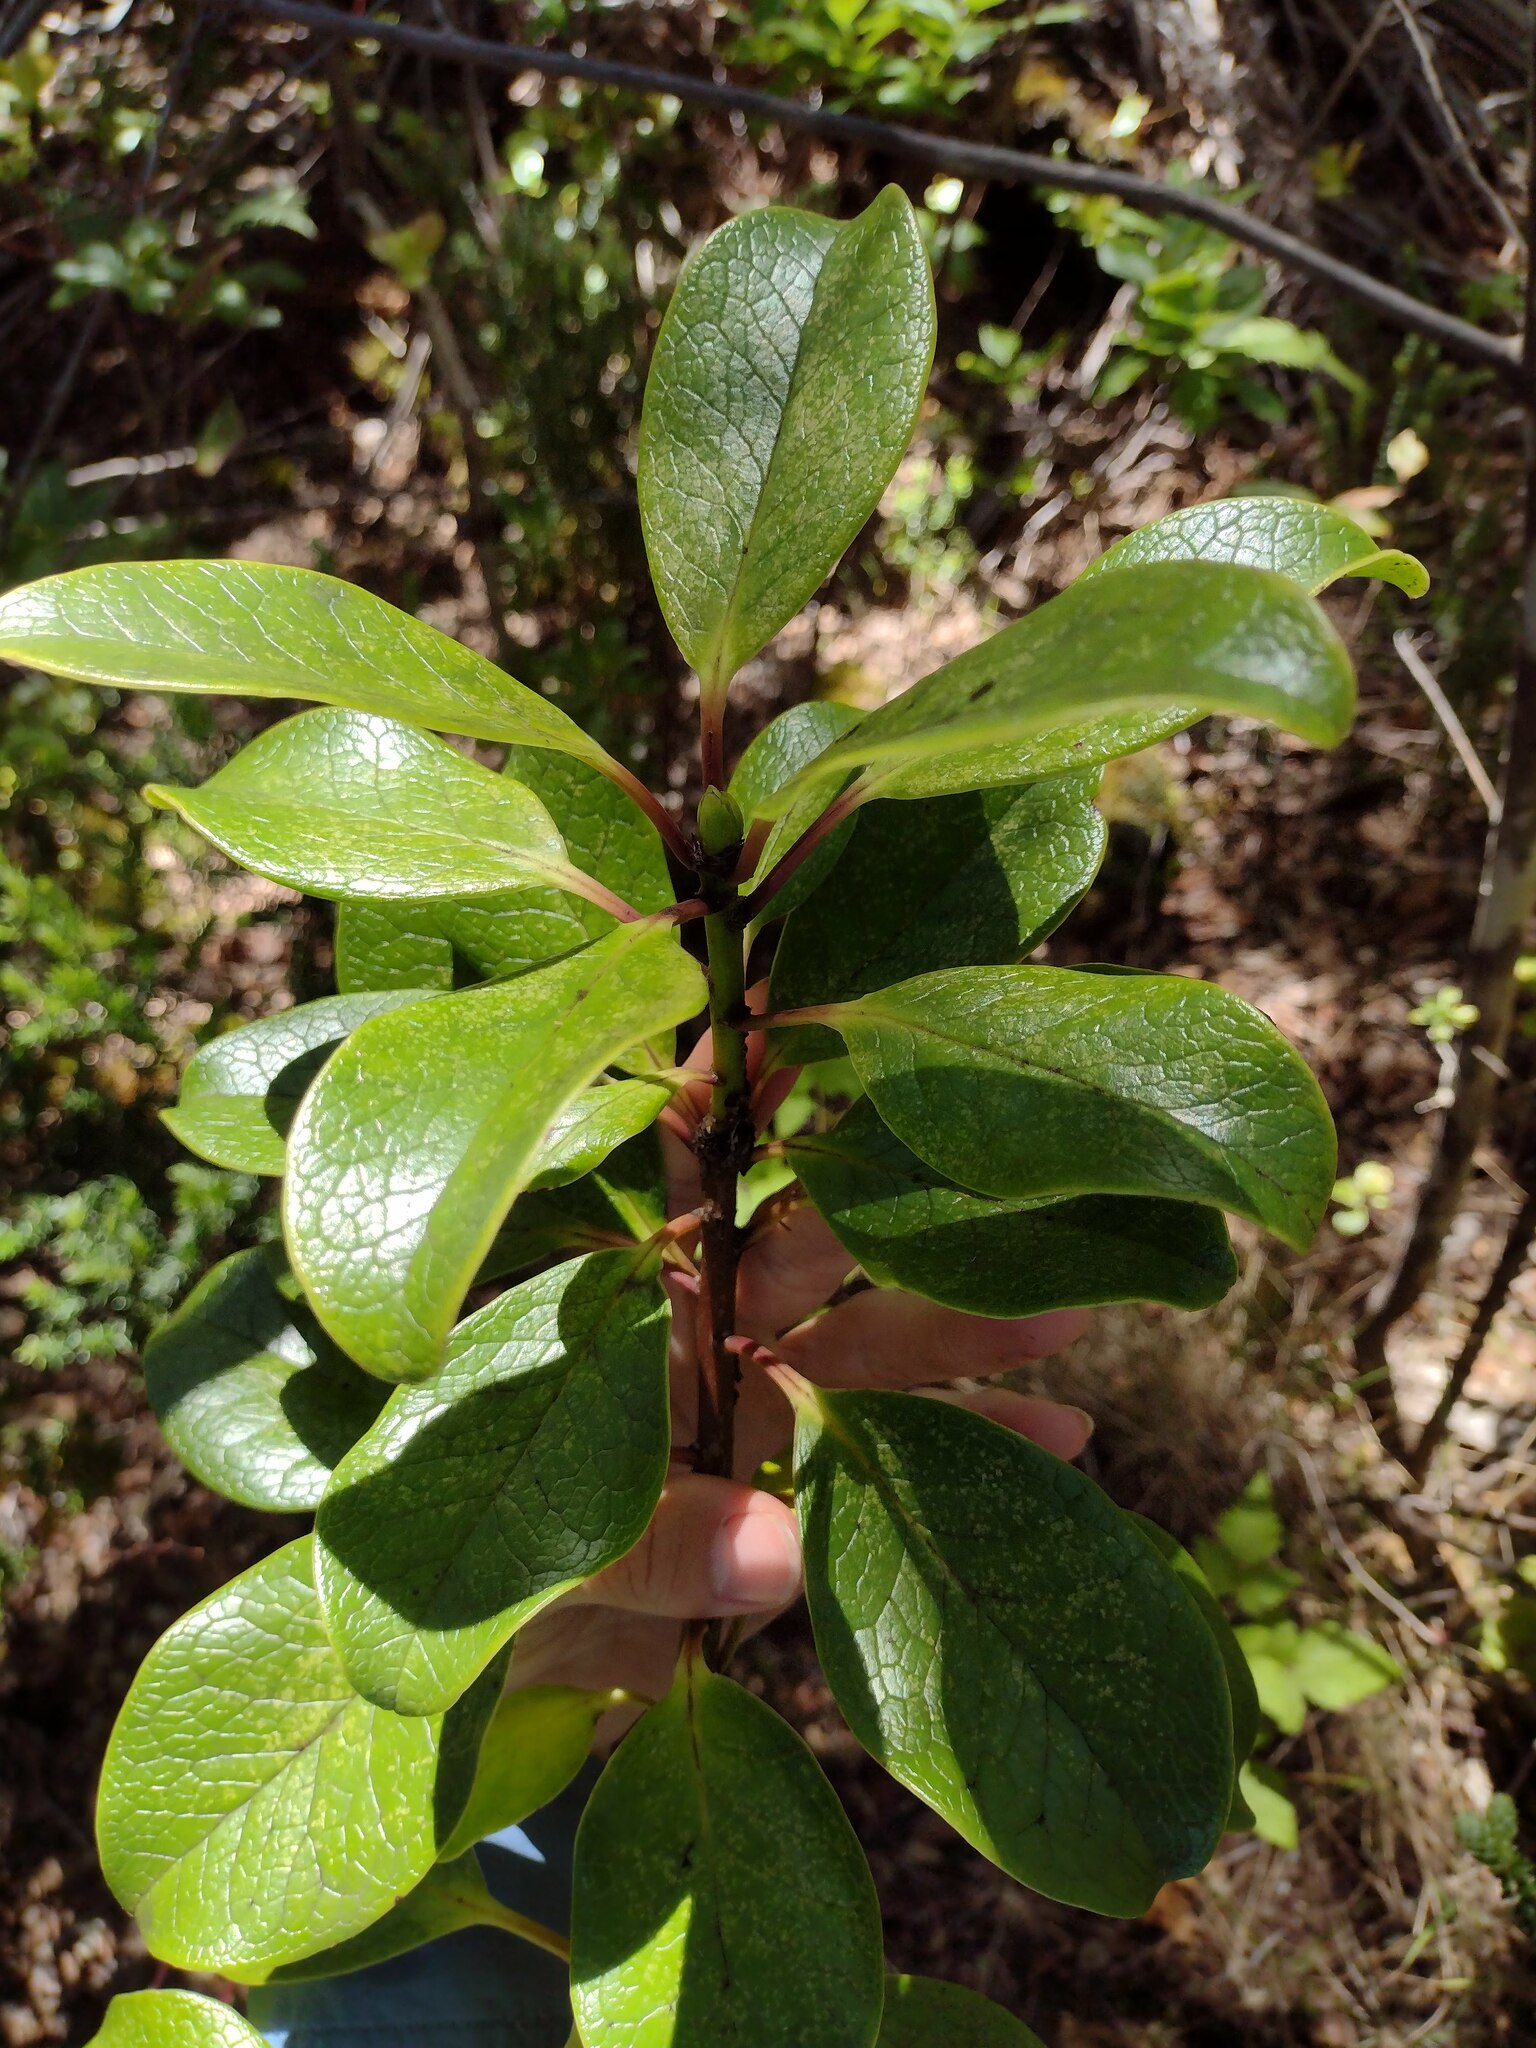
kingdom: Plantae
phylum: Tracheophyta
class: Magnoliopsida
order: Aquifoliales
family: Aquifoliaceae
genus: Ilex
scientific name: Ilex anomala
